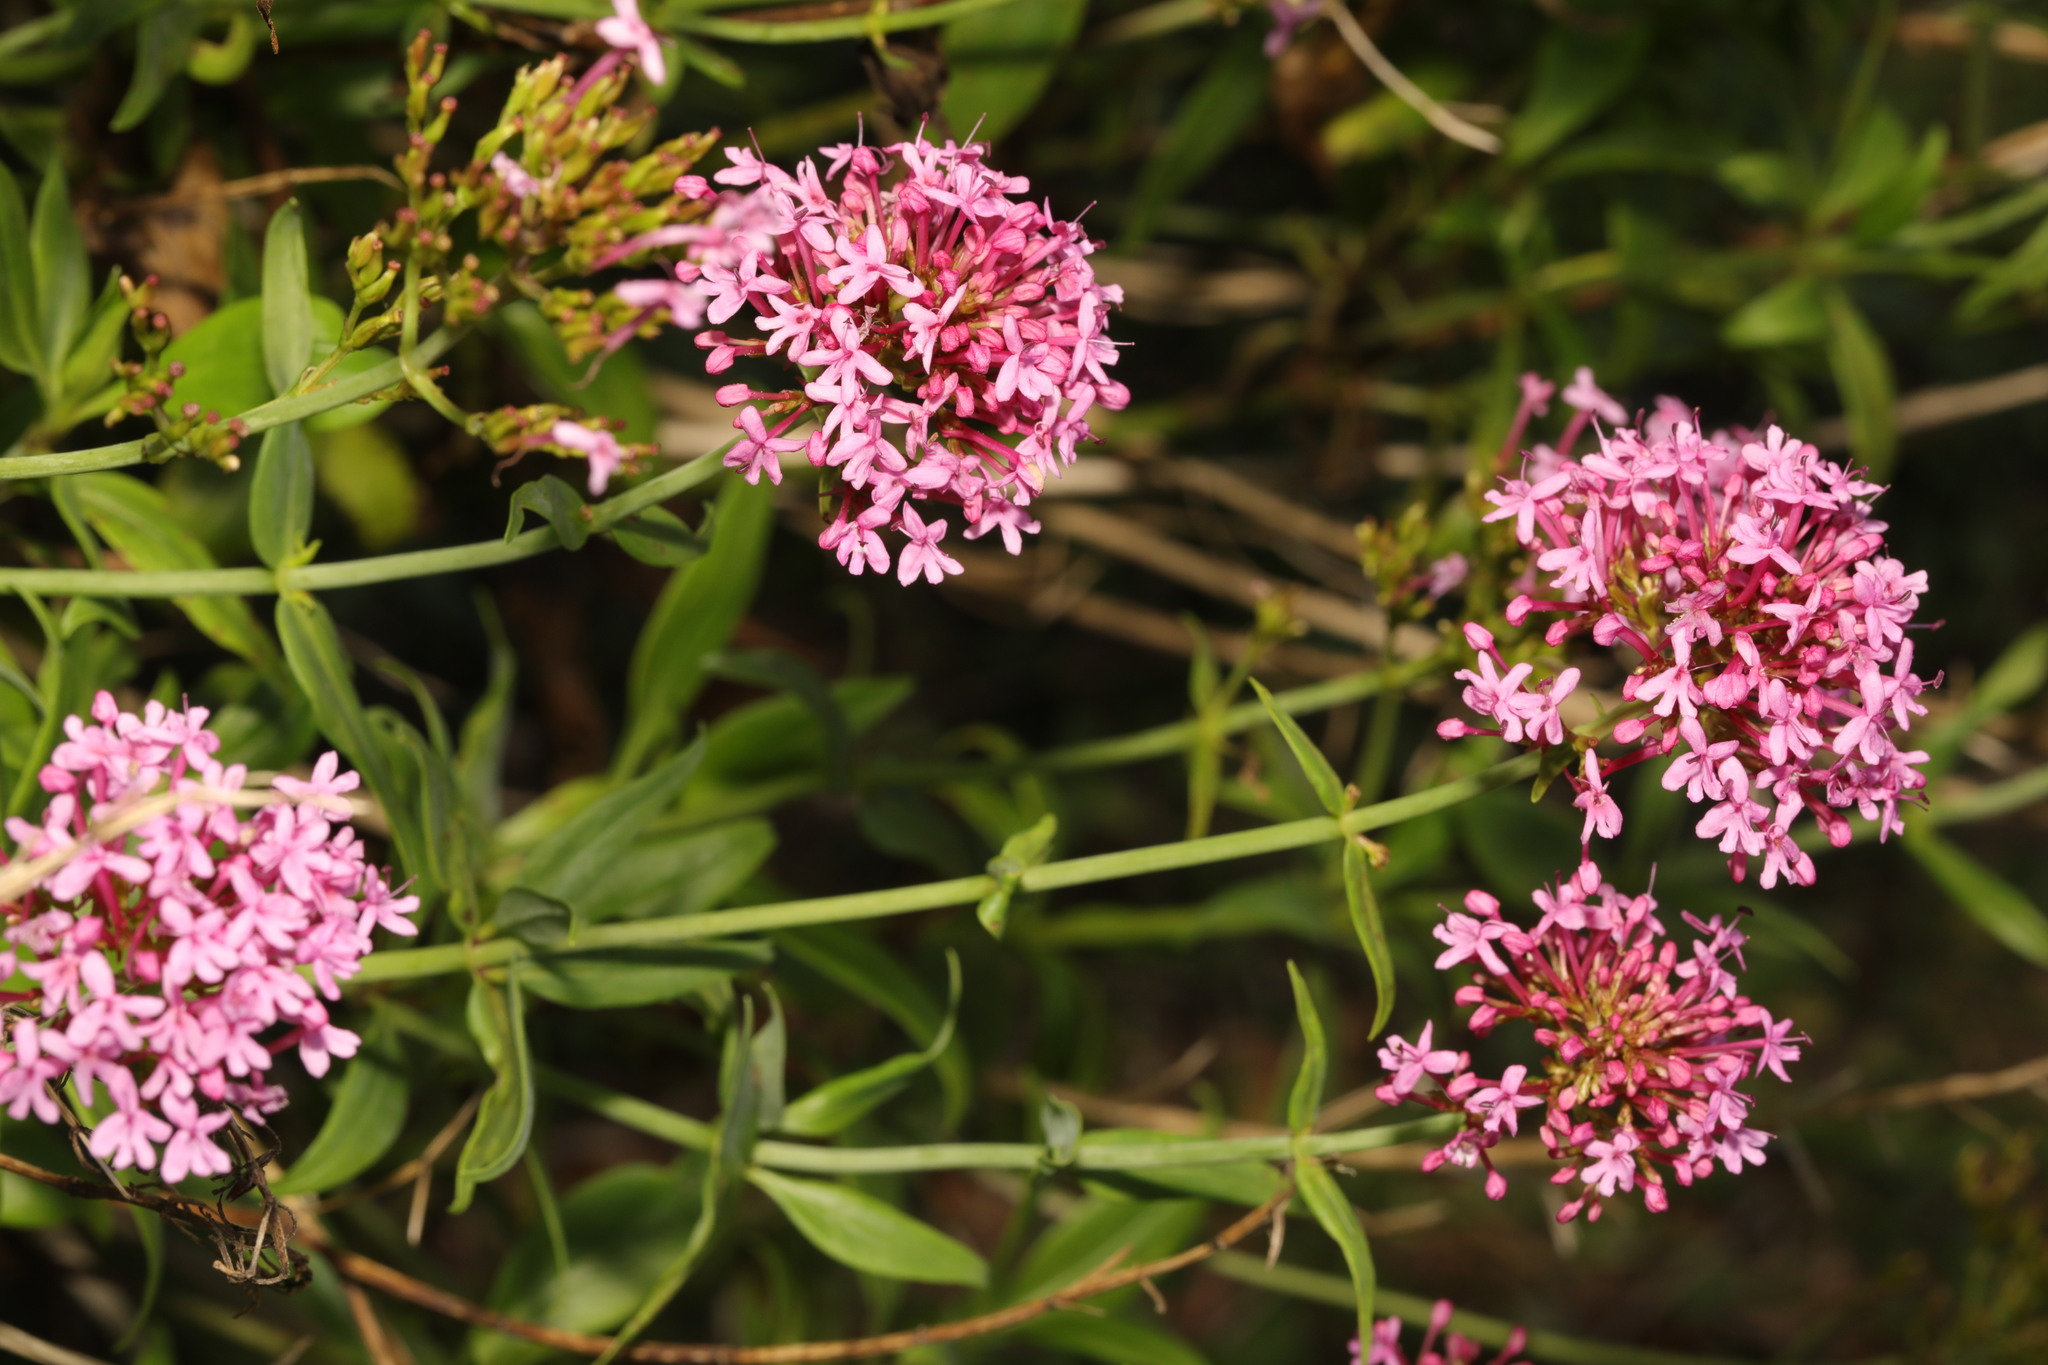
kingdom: Plantae
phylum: Tracheophyta
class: Magnoliopsida
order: Dipsacales
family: Caprifoliaceae
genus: Centranthus
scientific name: Centranthus ruber
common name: Red valerian
